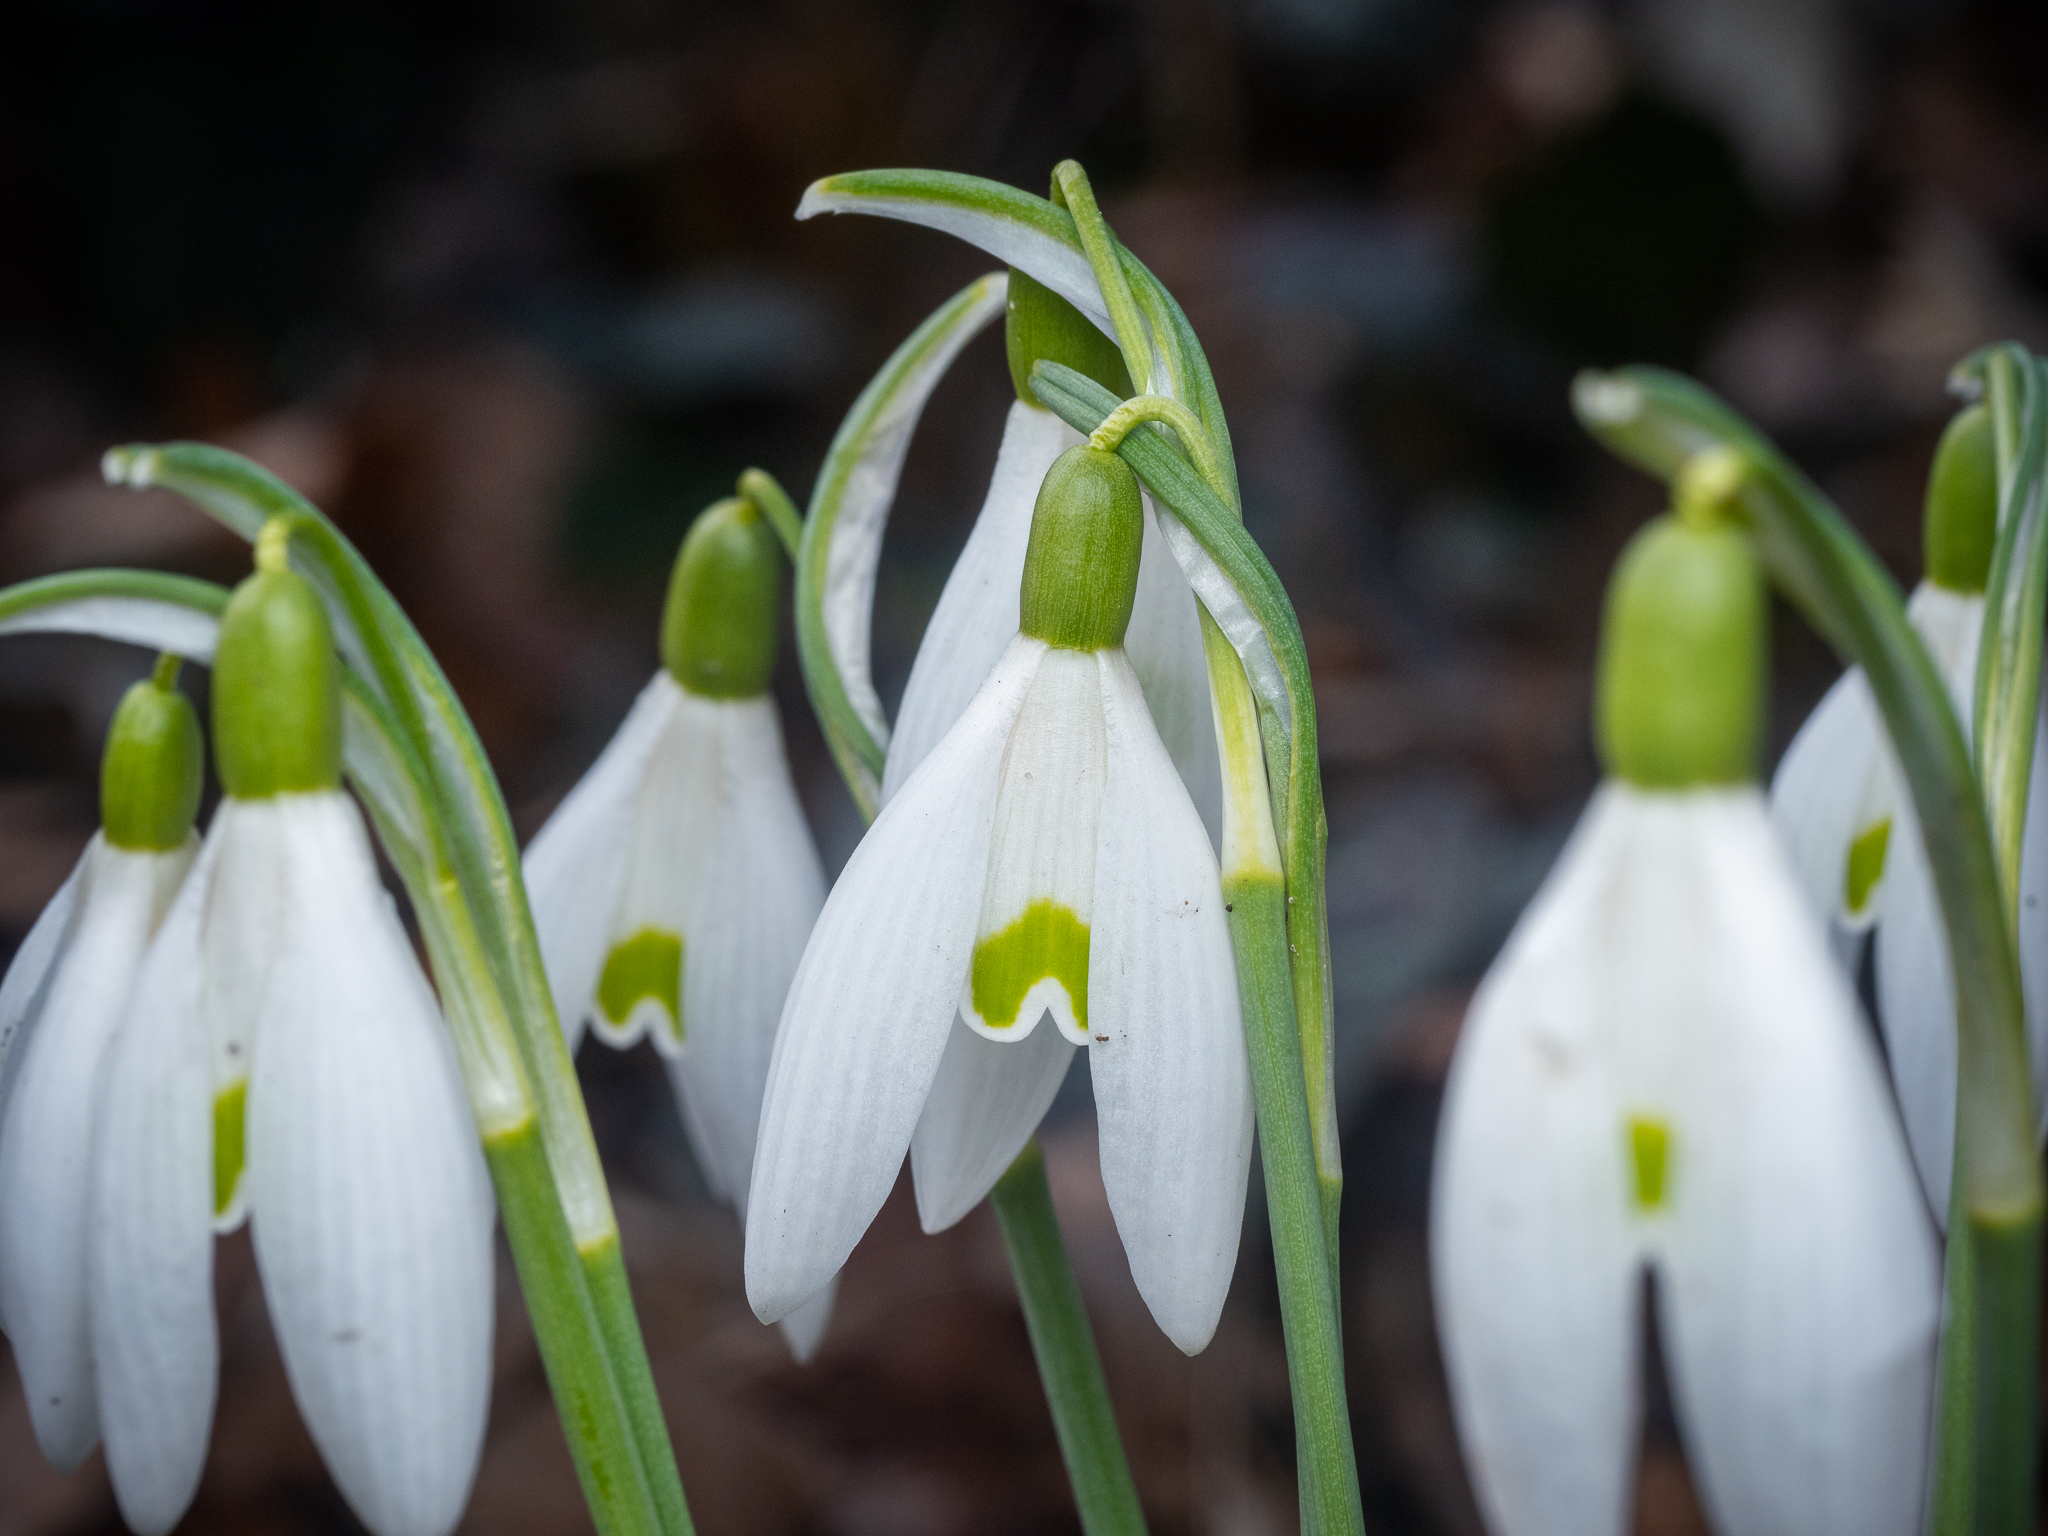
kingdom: Plantae
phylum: Tracheophyta
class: Liliopsida
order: Asparagales
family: Amaryllidaceae
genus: Galanthus
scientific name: Galanthus nivalis
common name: Snowdrop
